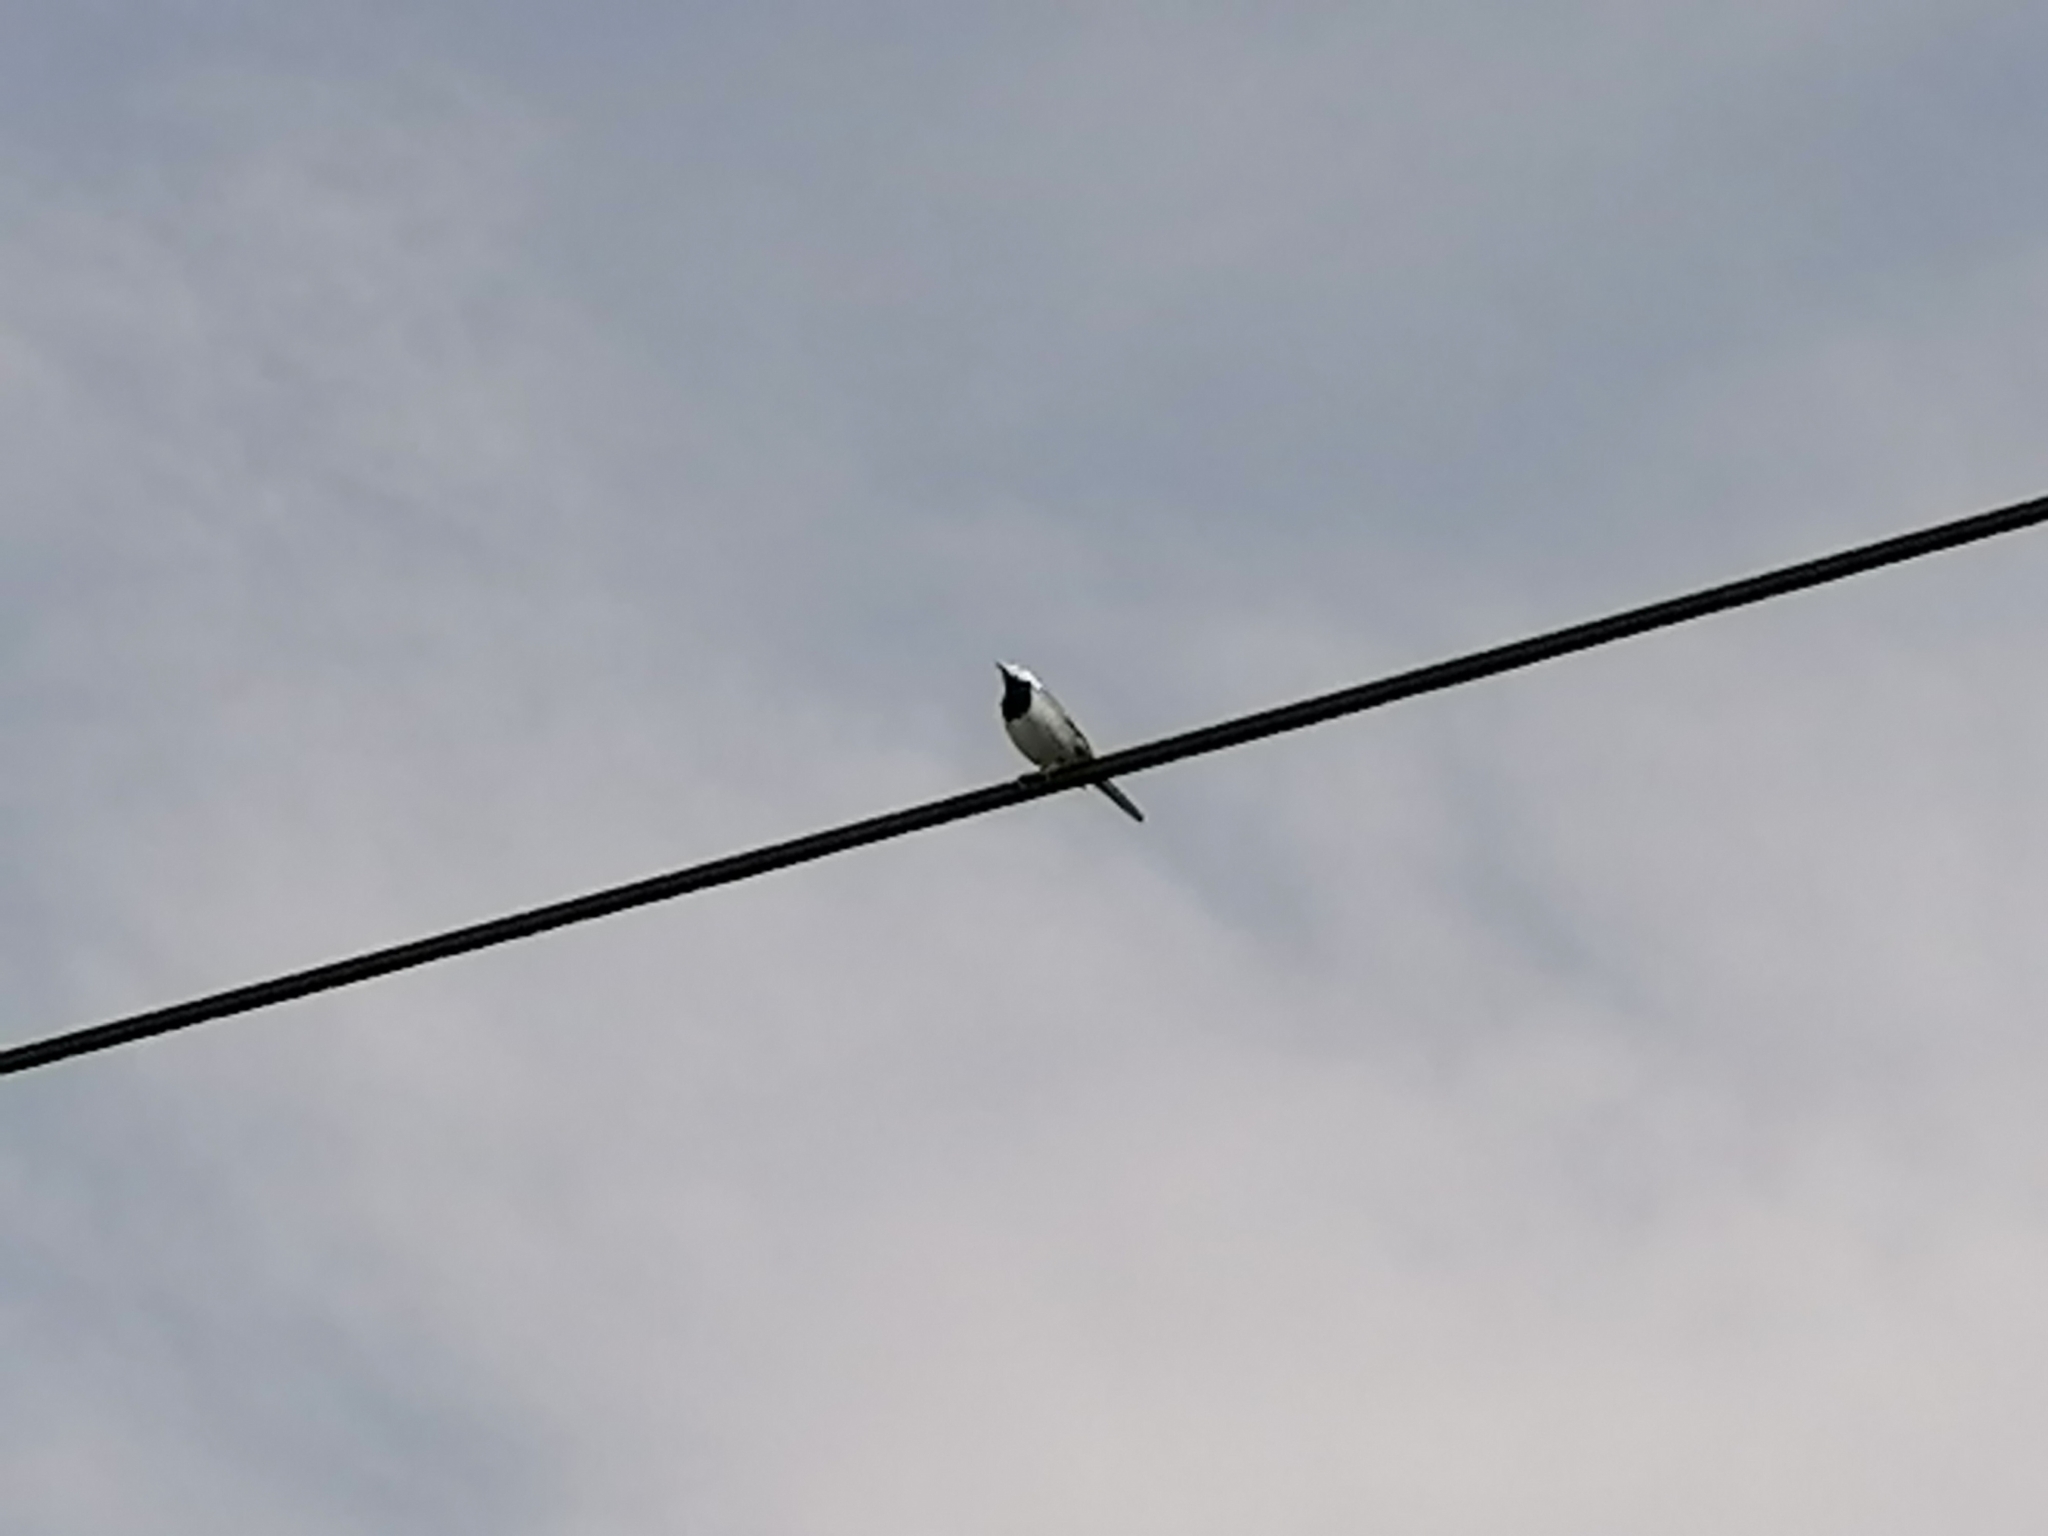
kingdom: Animalia
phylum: Chordata
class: Aves
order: Passeriformes
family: Motacillidae
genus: Motacilla
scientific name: Motacilla alba
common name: White wagtail
